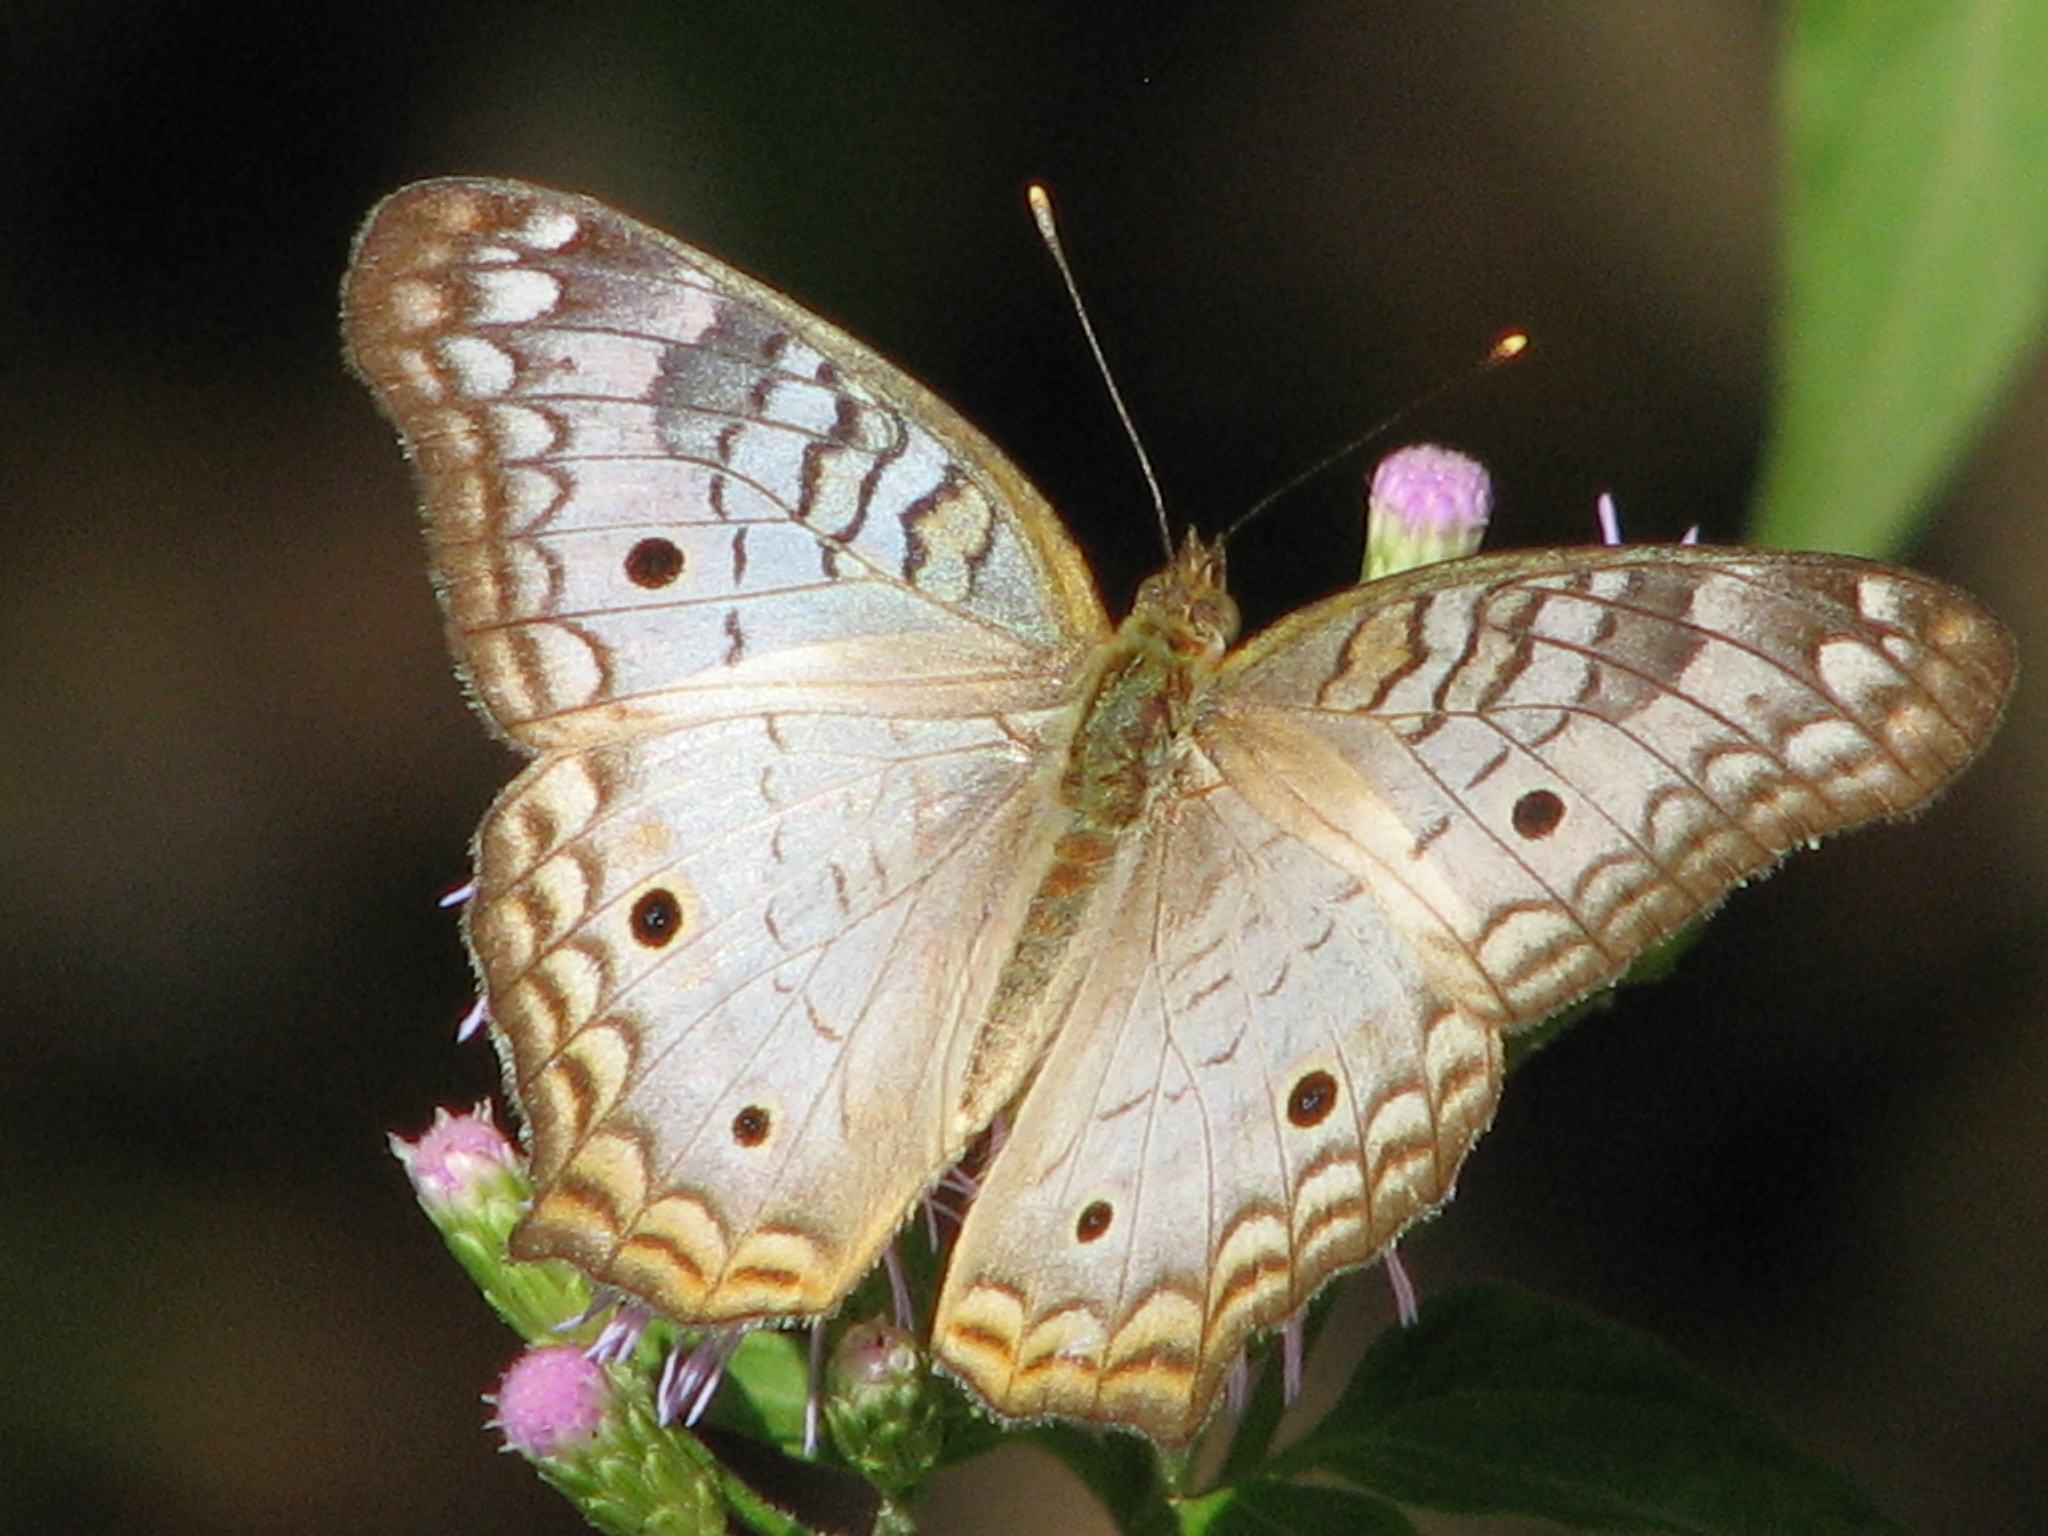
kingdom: Animalia
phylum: Arthropoda
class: Insecta
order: Lepidoptera
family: Nymphalidae
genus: Anartia
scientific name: Anartia jatrophae
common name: White peacock
